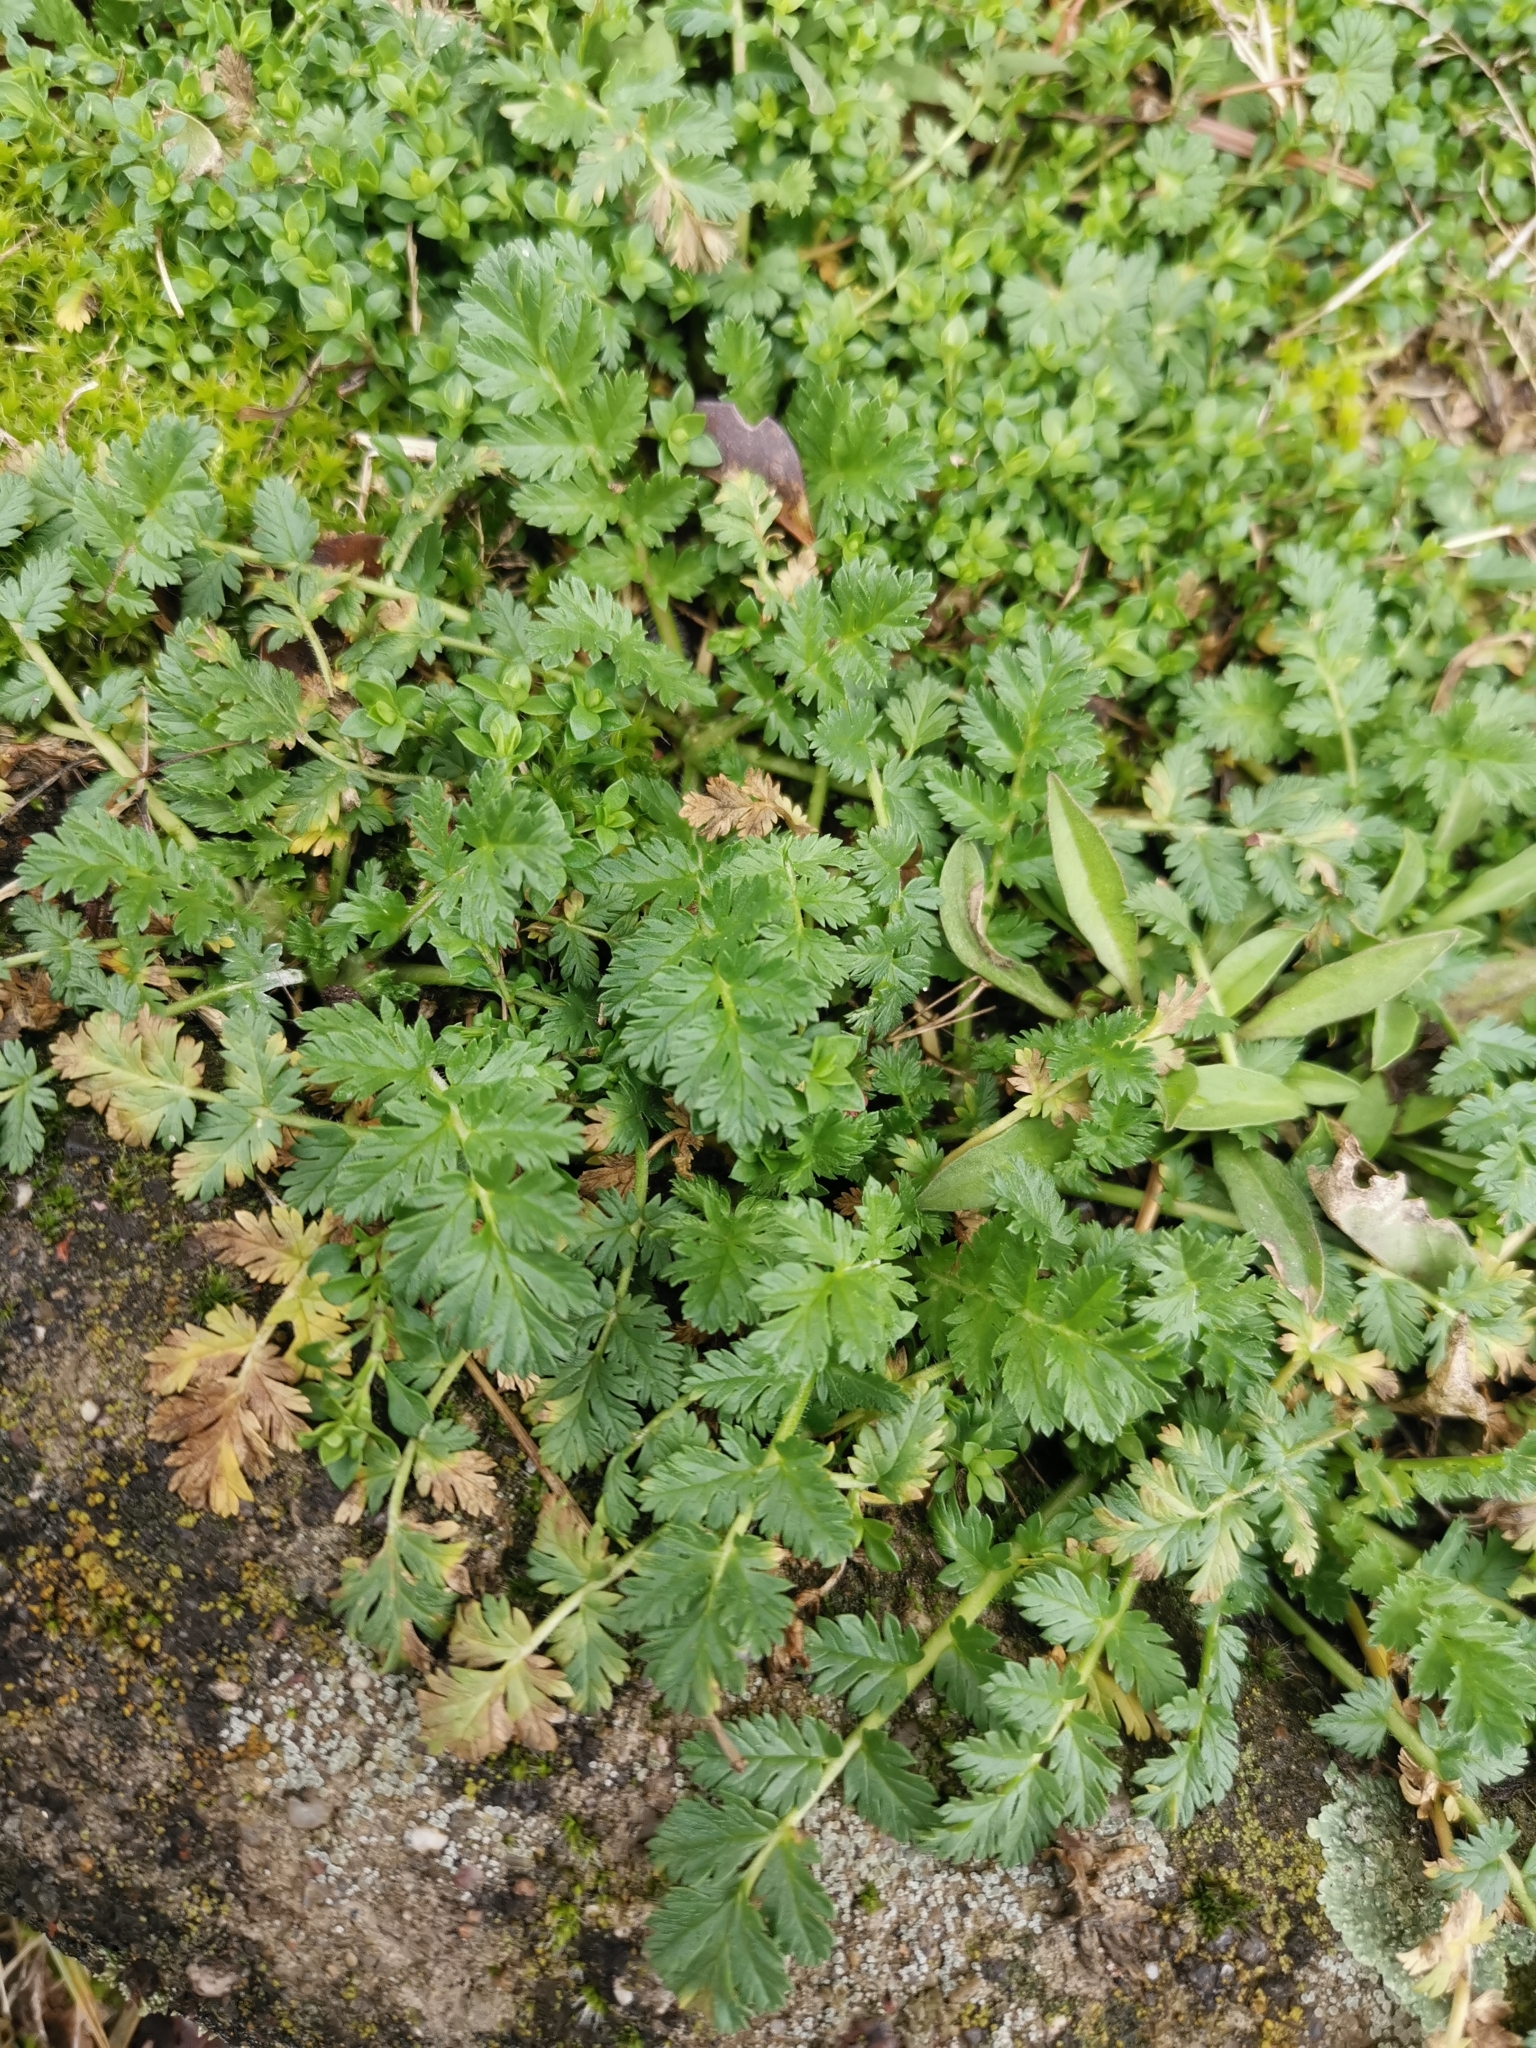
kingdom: Plantae
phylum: Tracheophyta
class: Magnoliopsida
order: Geraniales
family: Geraniaceae
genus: Erodium
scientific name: Erodium cicutarium
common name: Common stork's-bill
